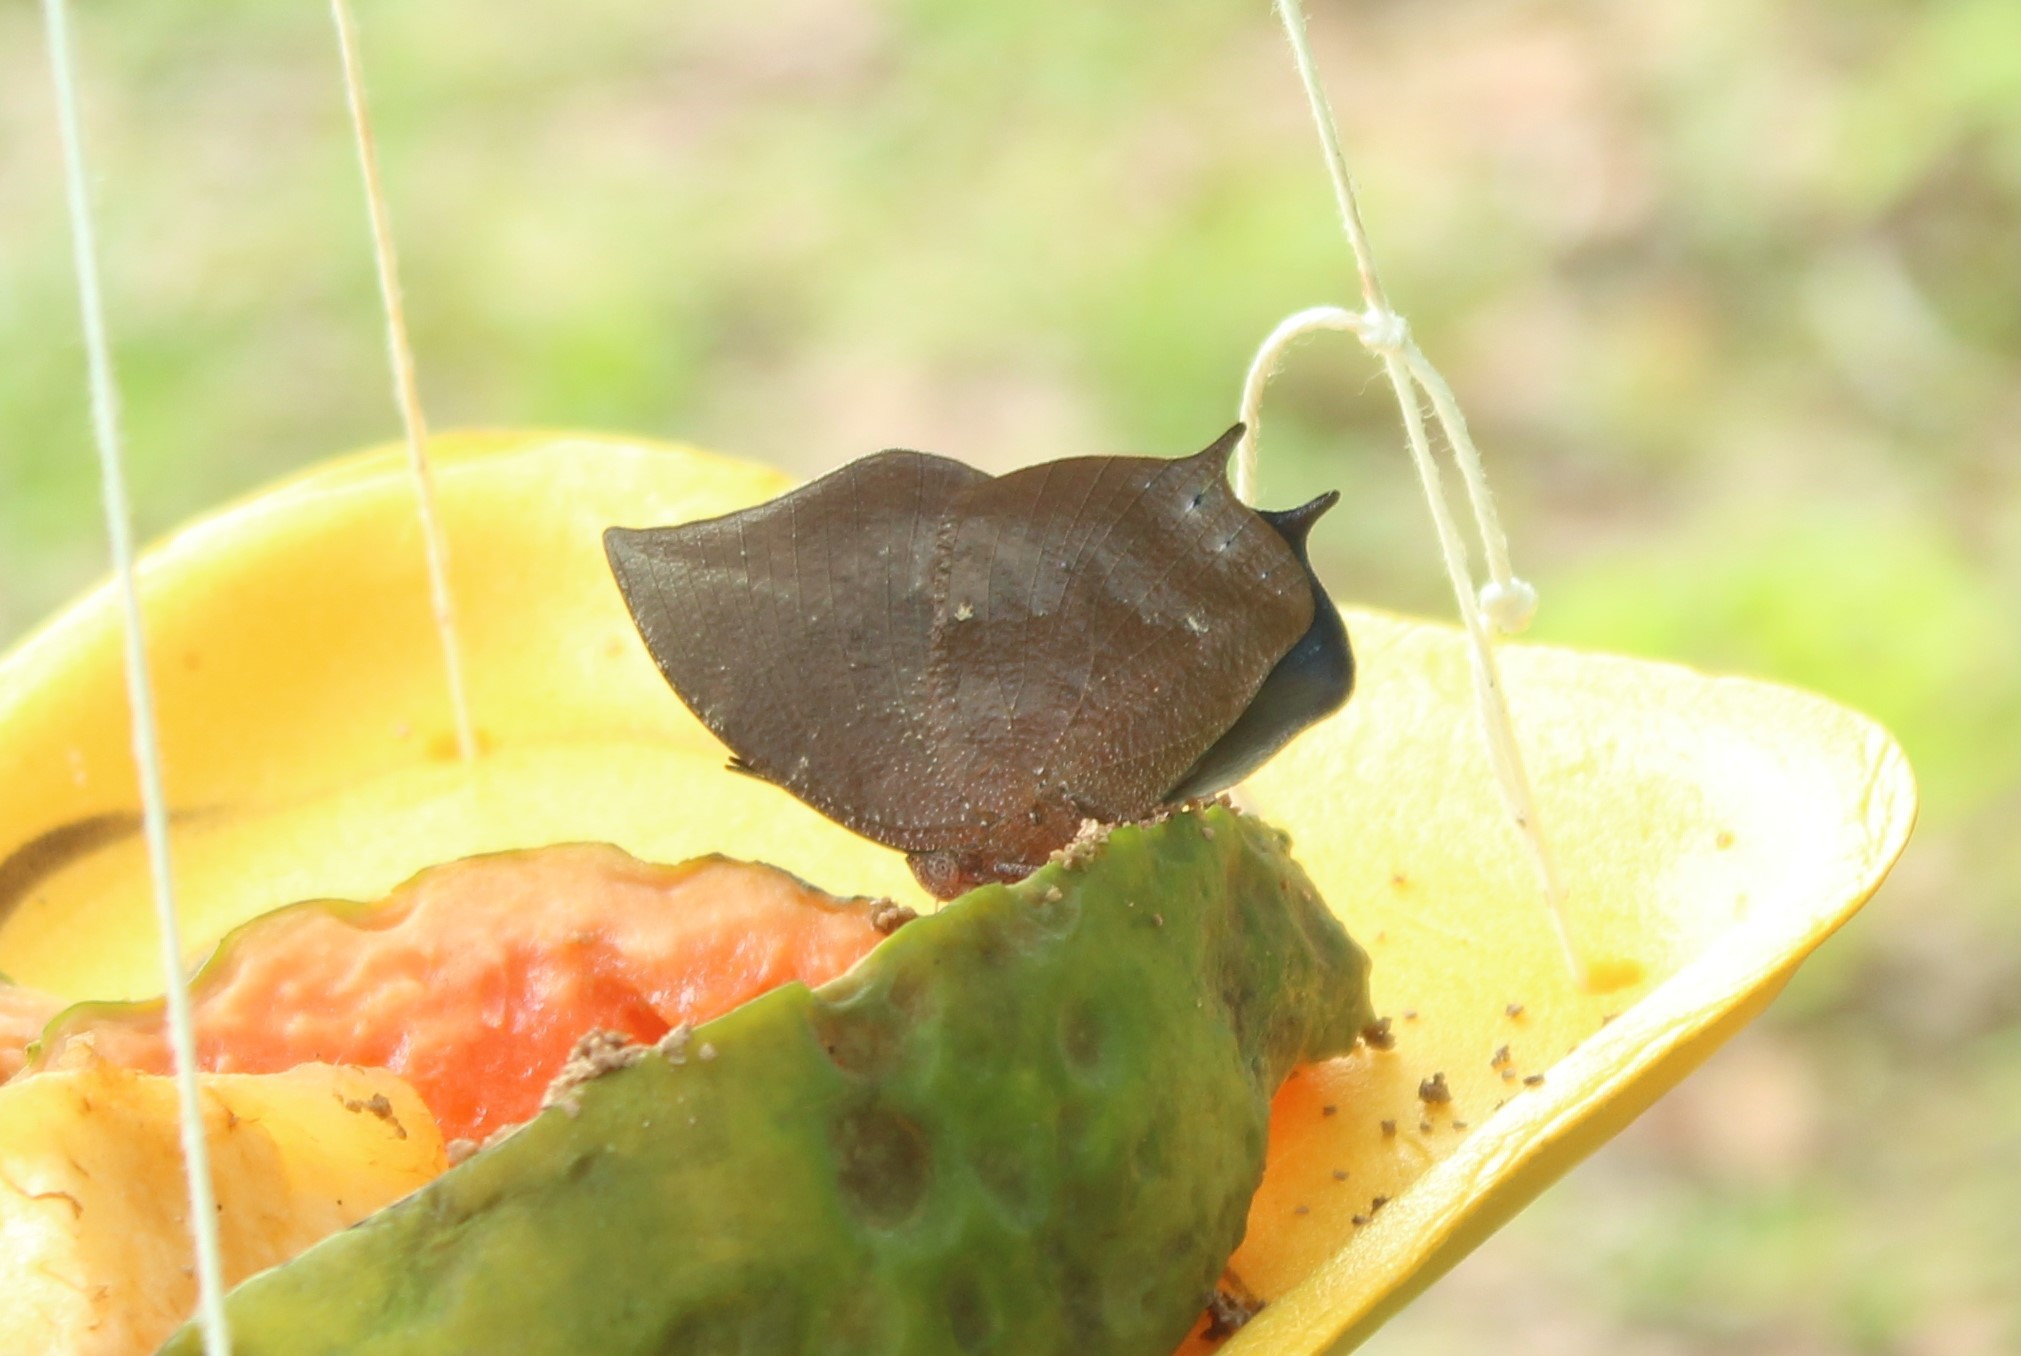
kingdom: Animalia
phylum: Arthropoda
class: Insecta
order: Lepidoptera
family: Nymphalidae
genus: Anaea
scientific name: Anaea arachne
